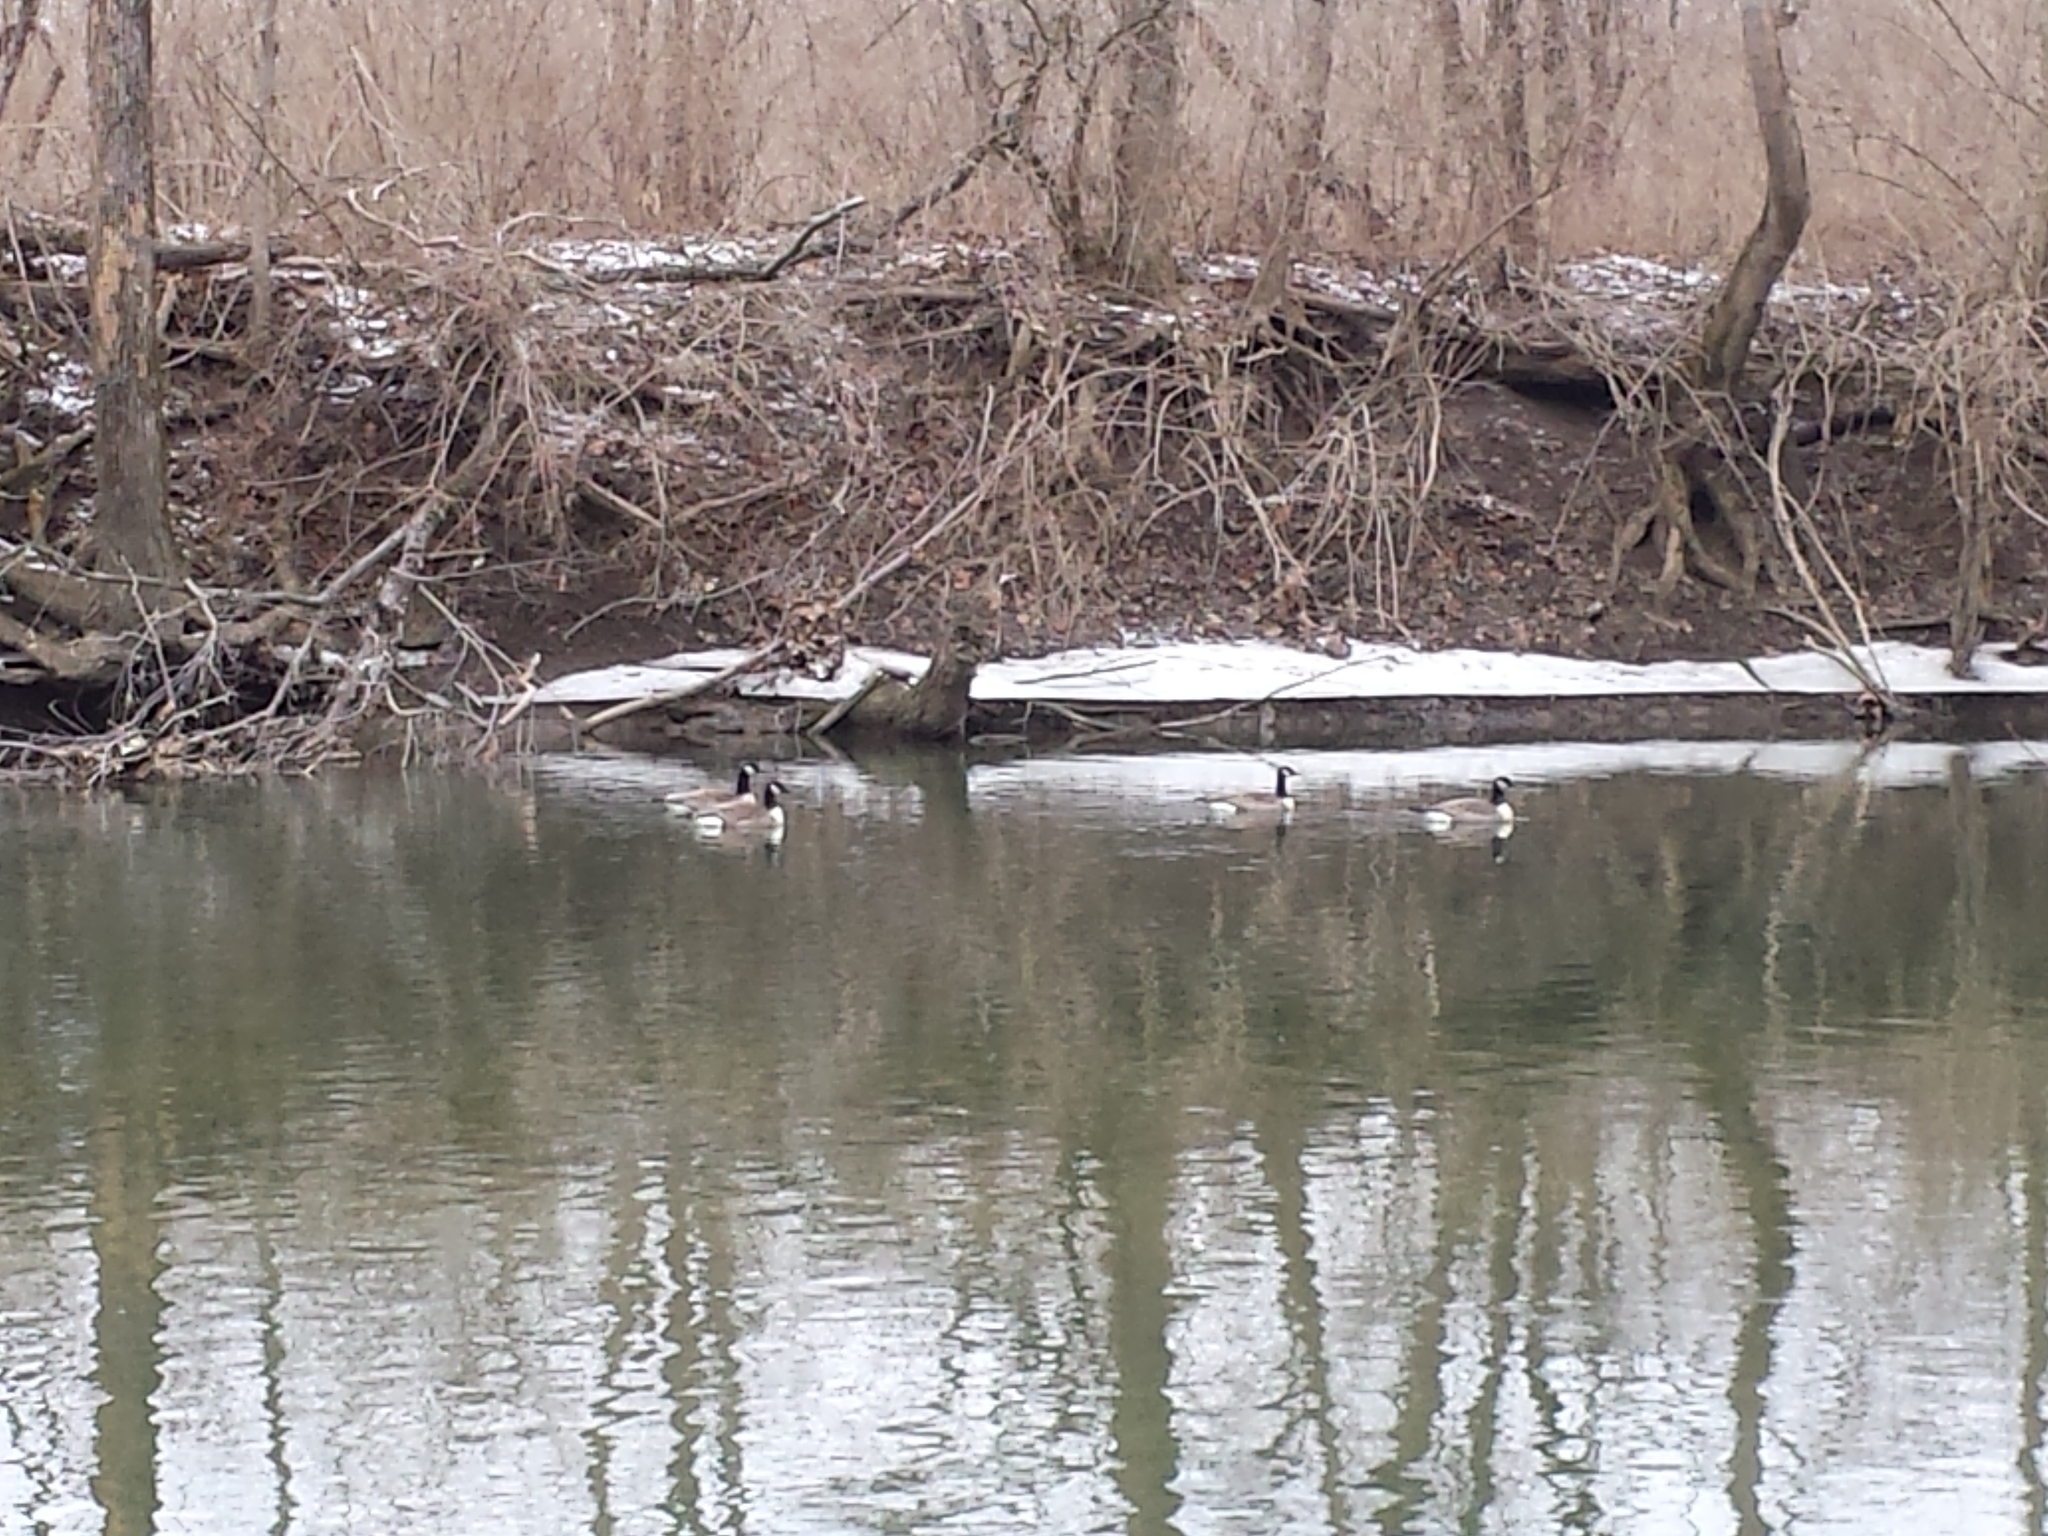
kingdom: Animalia
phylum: Chordata
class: Aves
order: Anseriformes
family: Anatidae
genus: Branta
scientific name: Branta hutchinsii
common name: Cackling goose
